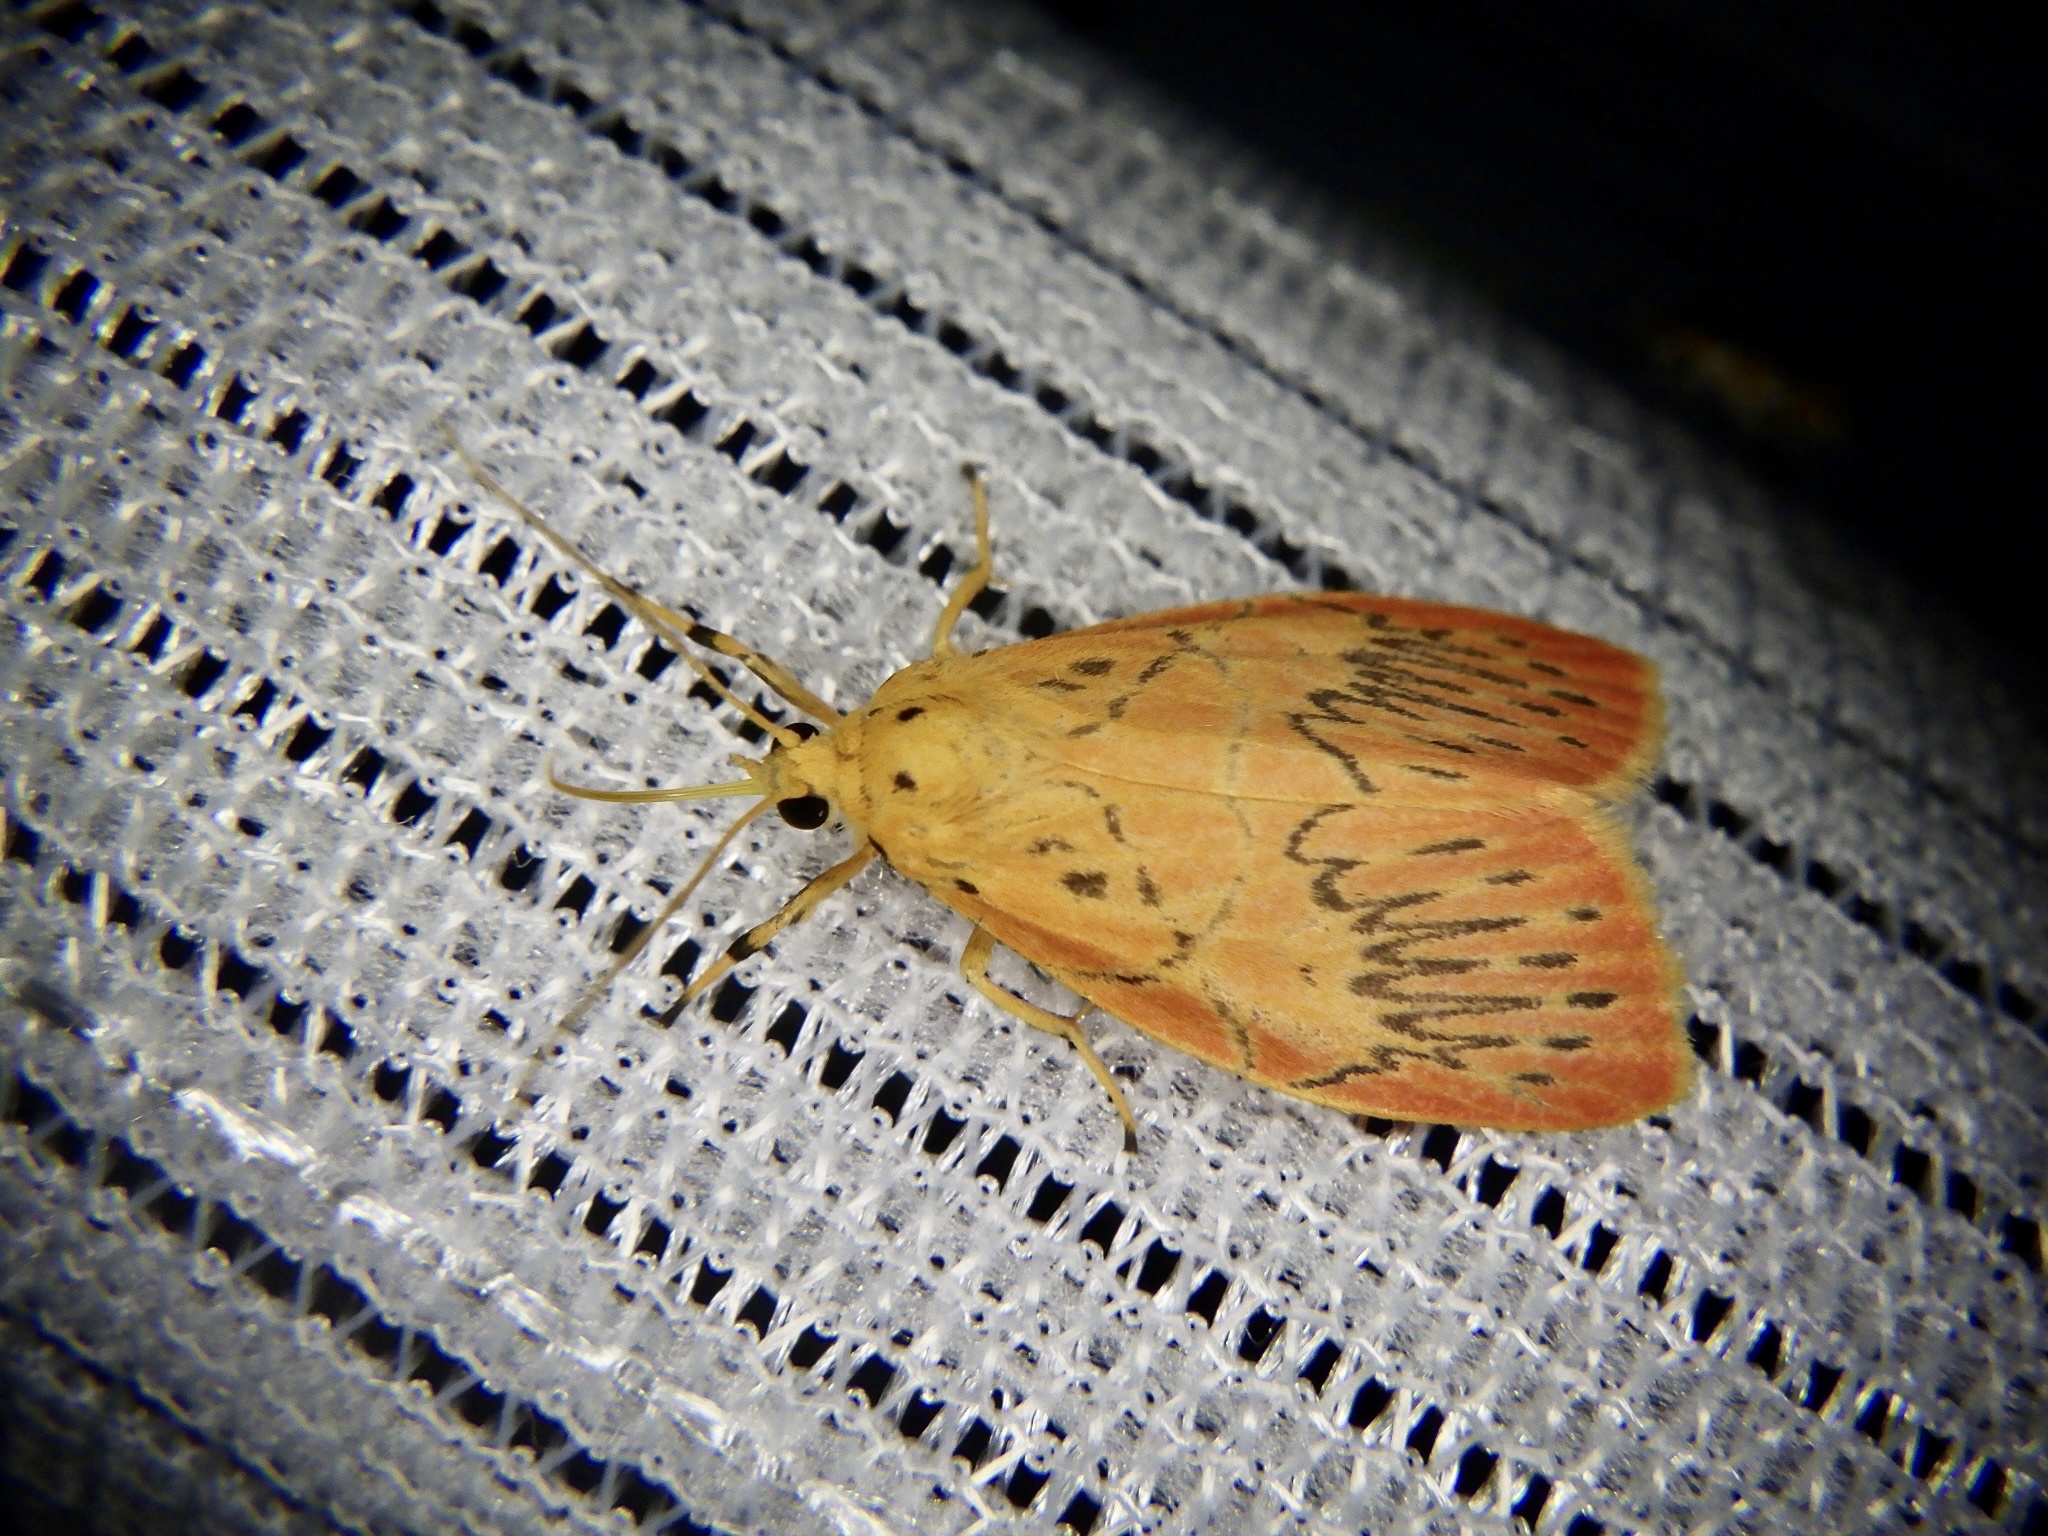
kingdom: Animalia
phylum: Arthropoda
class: Insecta
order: Lepidoptera
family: Erebidae
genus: Aberrasine
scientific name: Aberrasine aberrans
